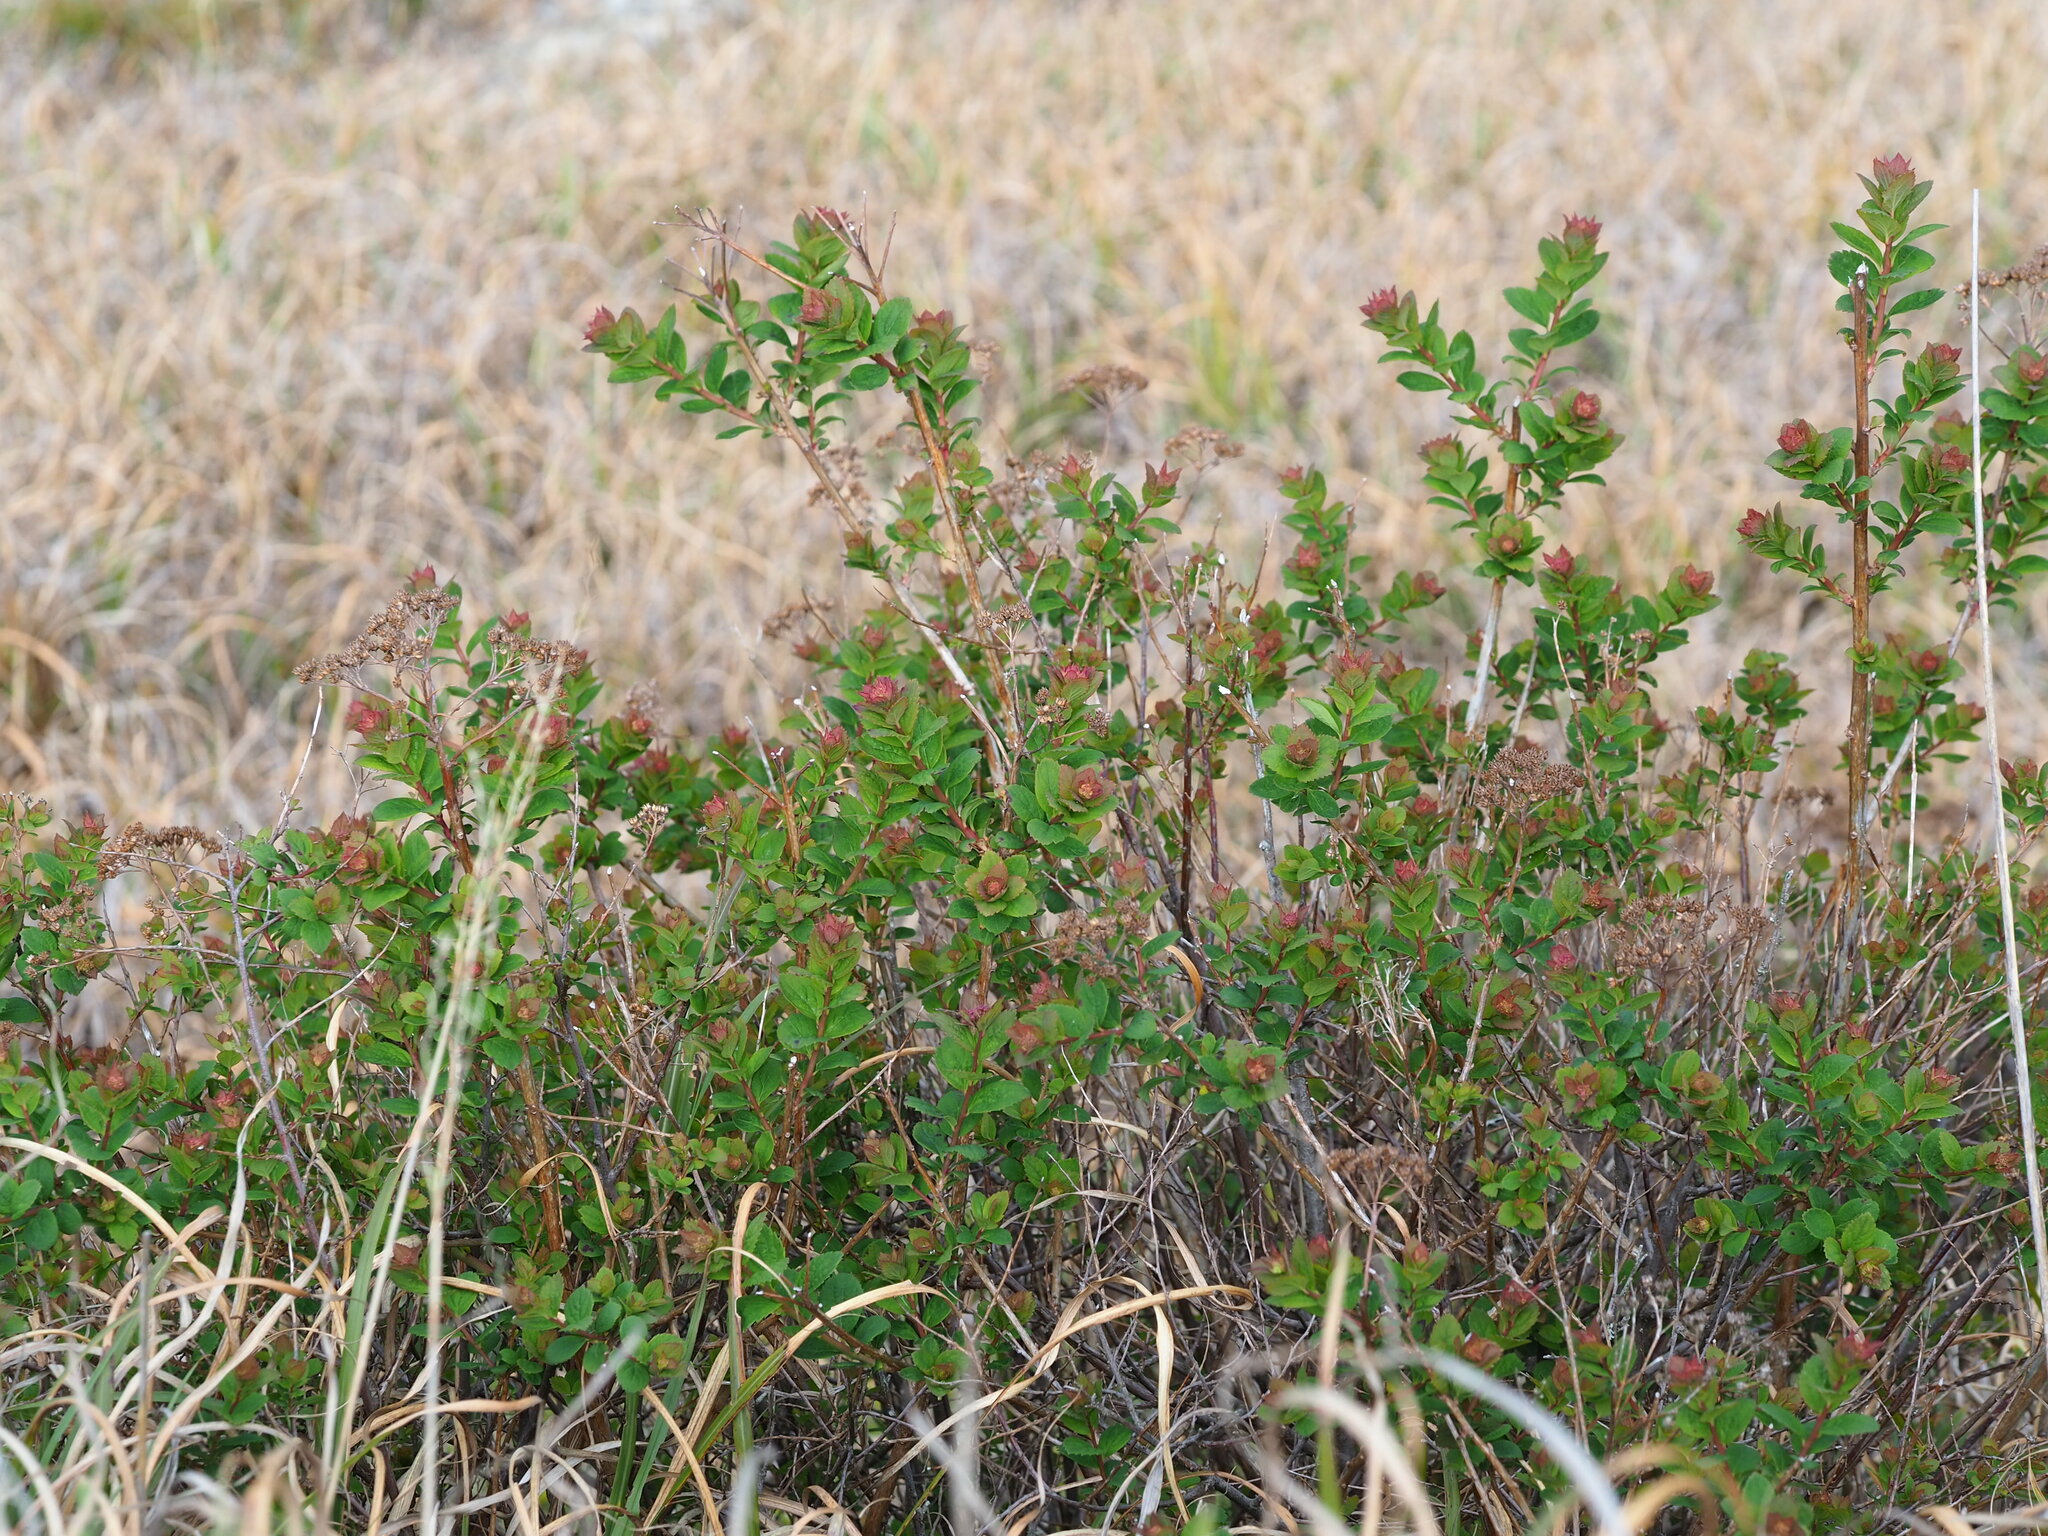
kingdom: Plantae
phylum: Tracheophyta
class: Magnoliopsida
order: Rosales
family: Rosaceae
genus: Spiraea
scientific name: Spiraea morrisonicola
